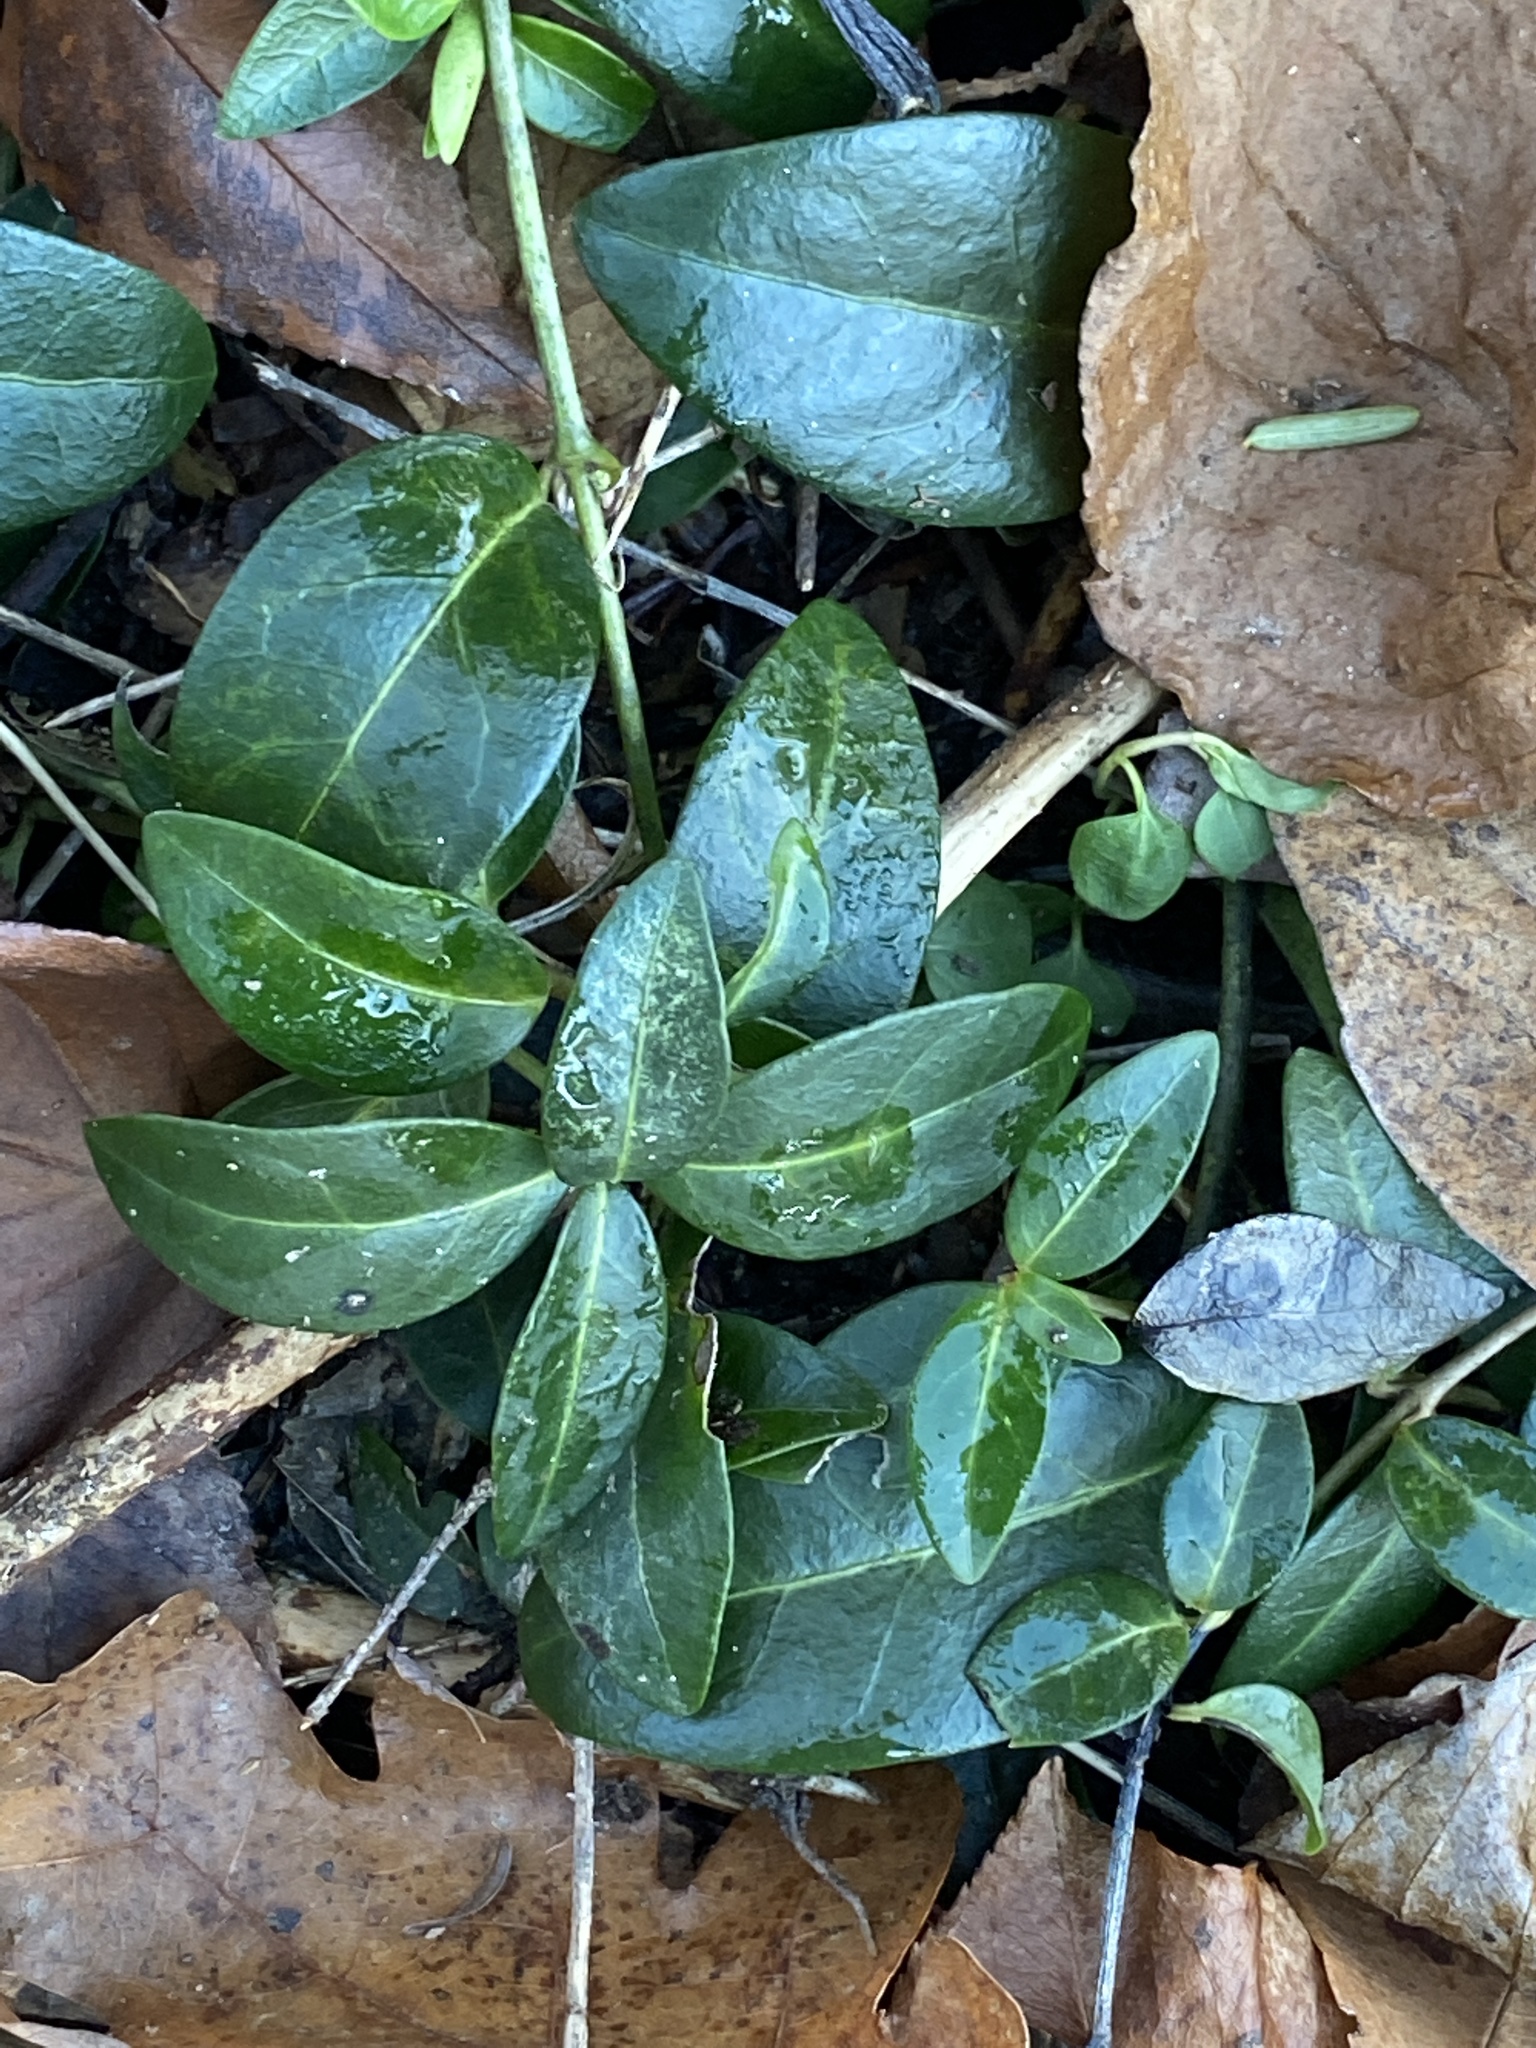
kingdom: Plantae
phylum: Tracheophyta
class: Magnoliopsida
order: Gentianales
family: Apocynaceae
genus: Vinca
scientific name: Vinca minor
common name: Lesser periwinkle
